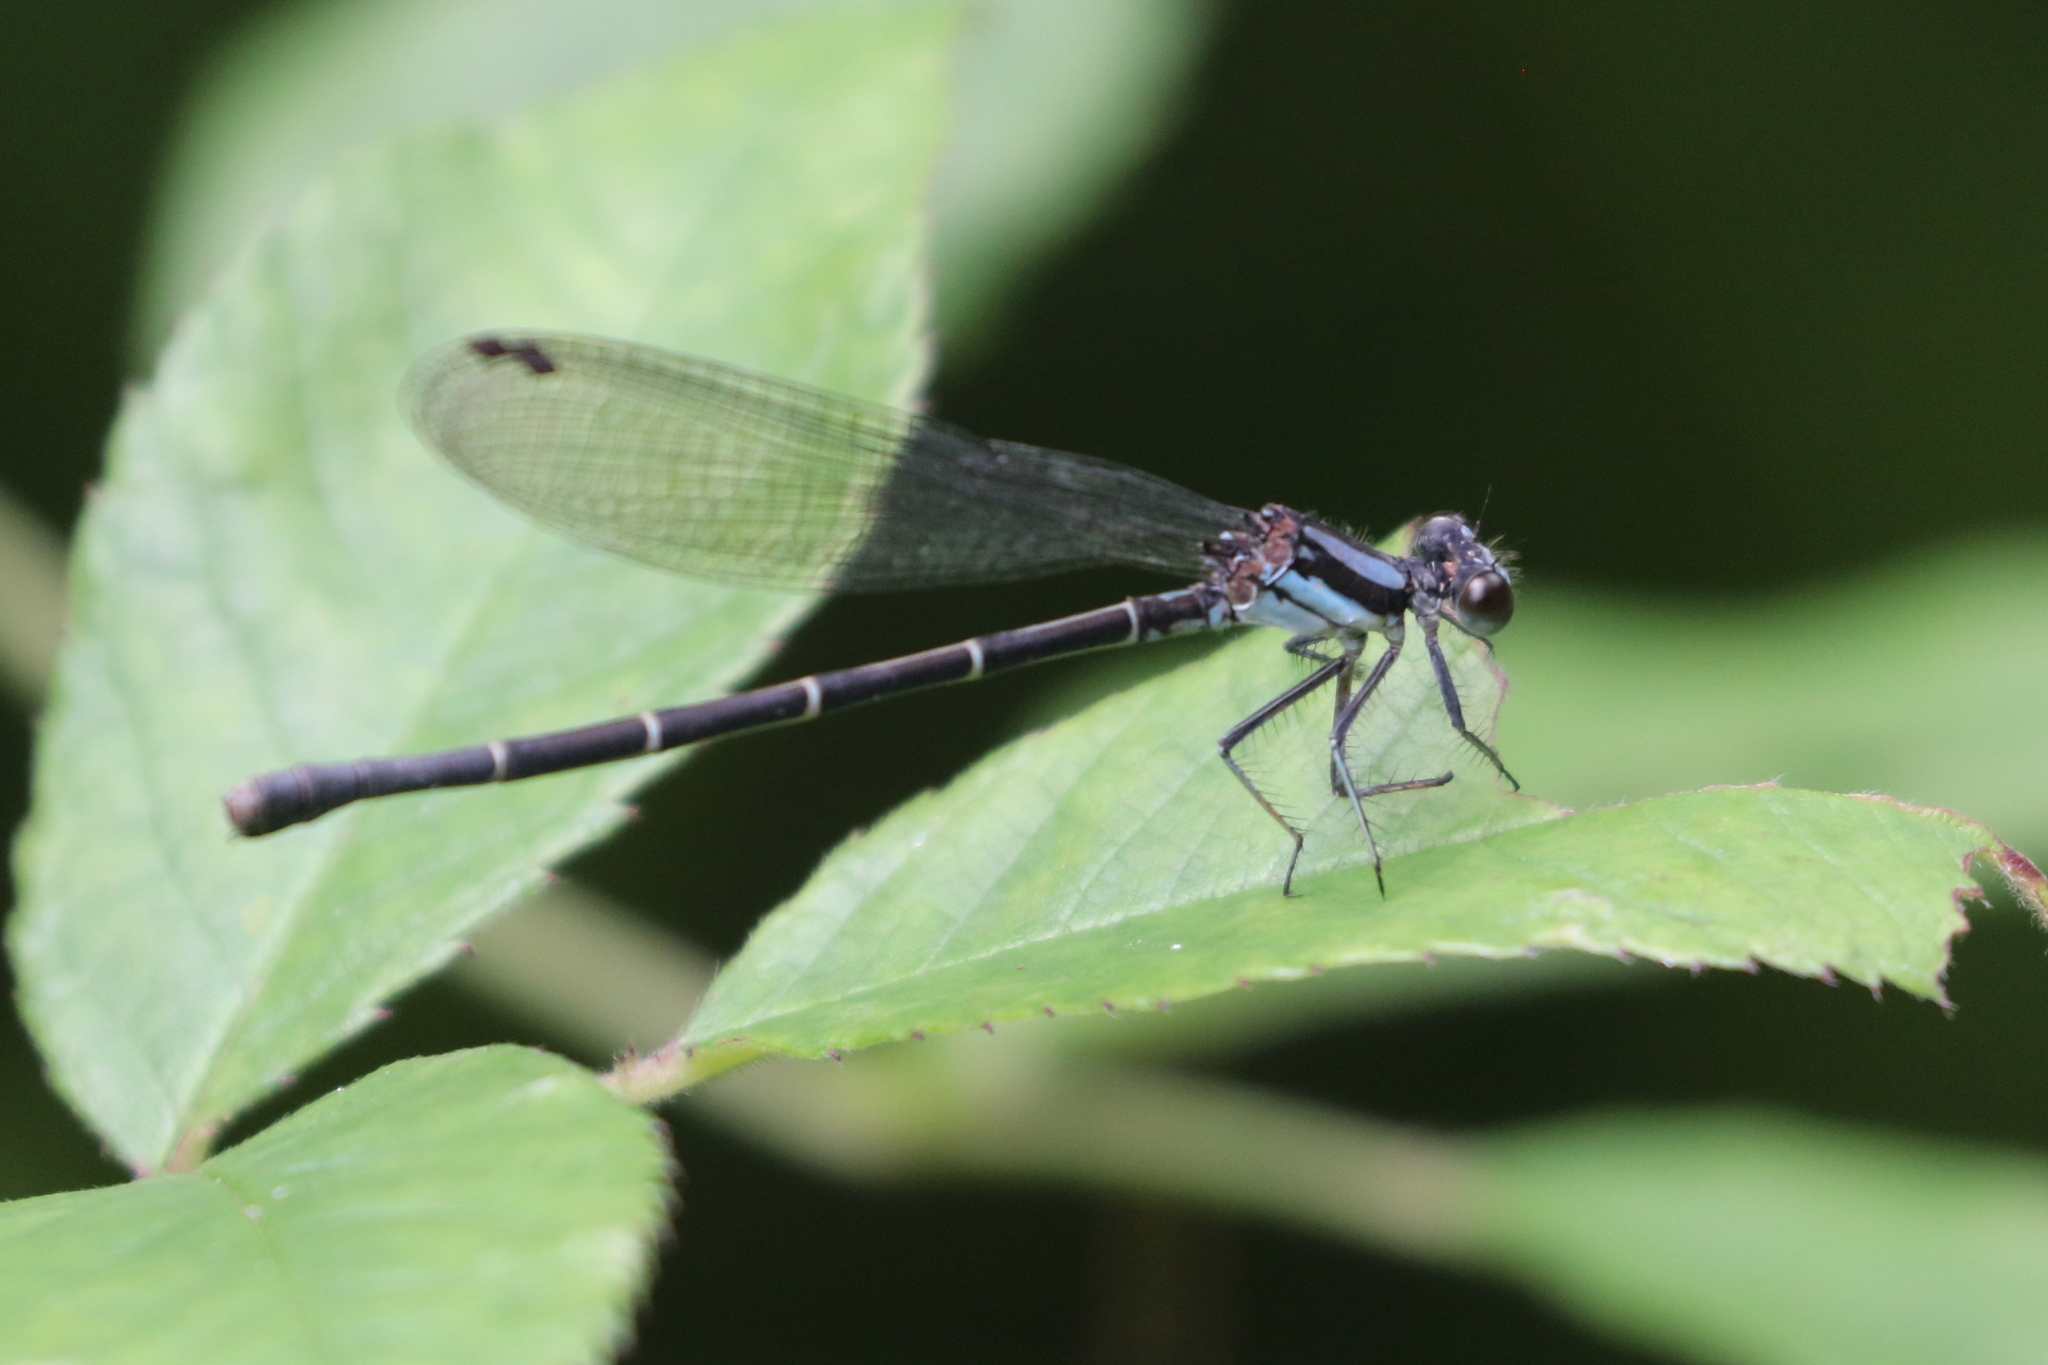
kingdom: Animalia
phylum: Arthropoda
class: Insecta
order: Odonata
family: Coenagrionidae
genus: Argia
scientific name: Argia tibialis
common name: Blue-tipped dancer
